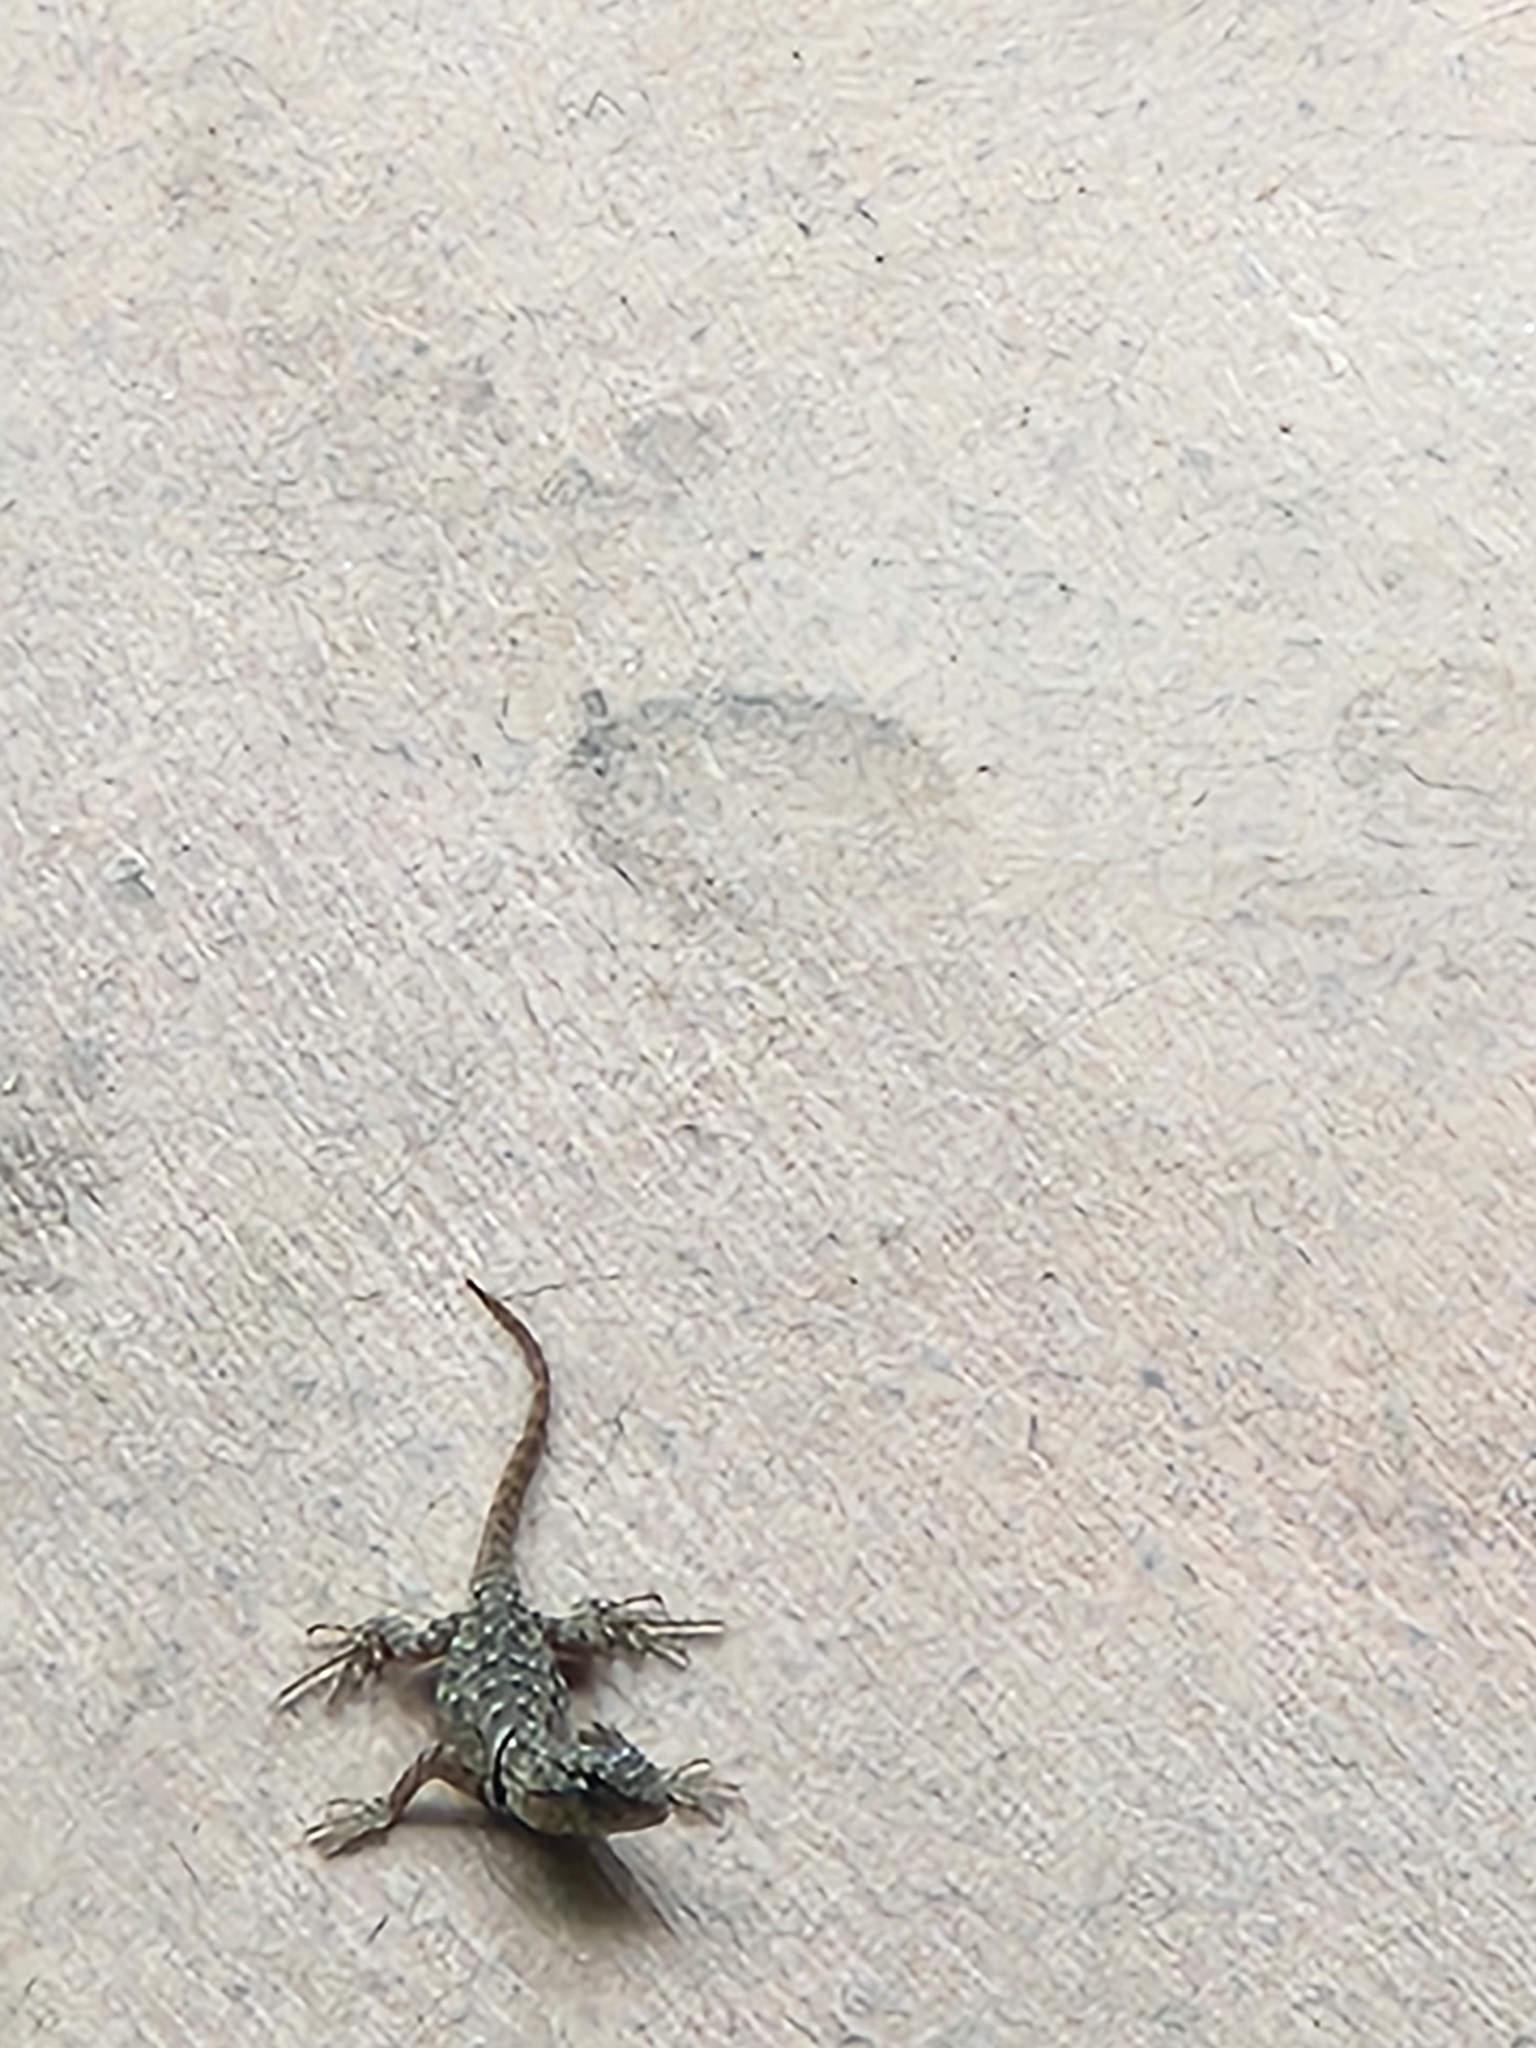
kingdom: Animalia
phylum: Chordata
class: Squamata
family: Phrynosomatidae
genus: Sceloporus
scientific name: Sceloporus magister
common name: Desert spiny lizard
